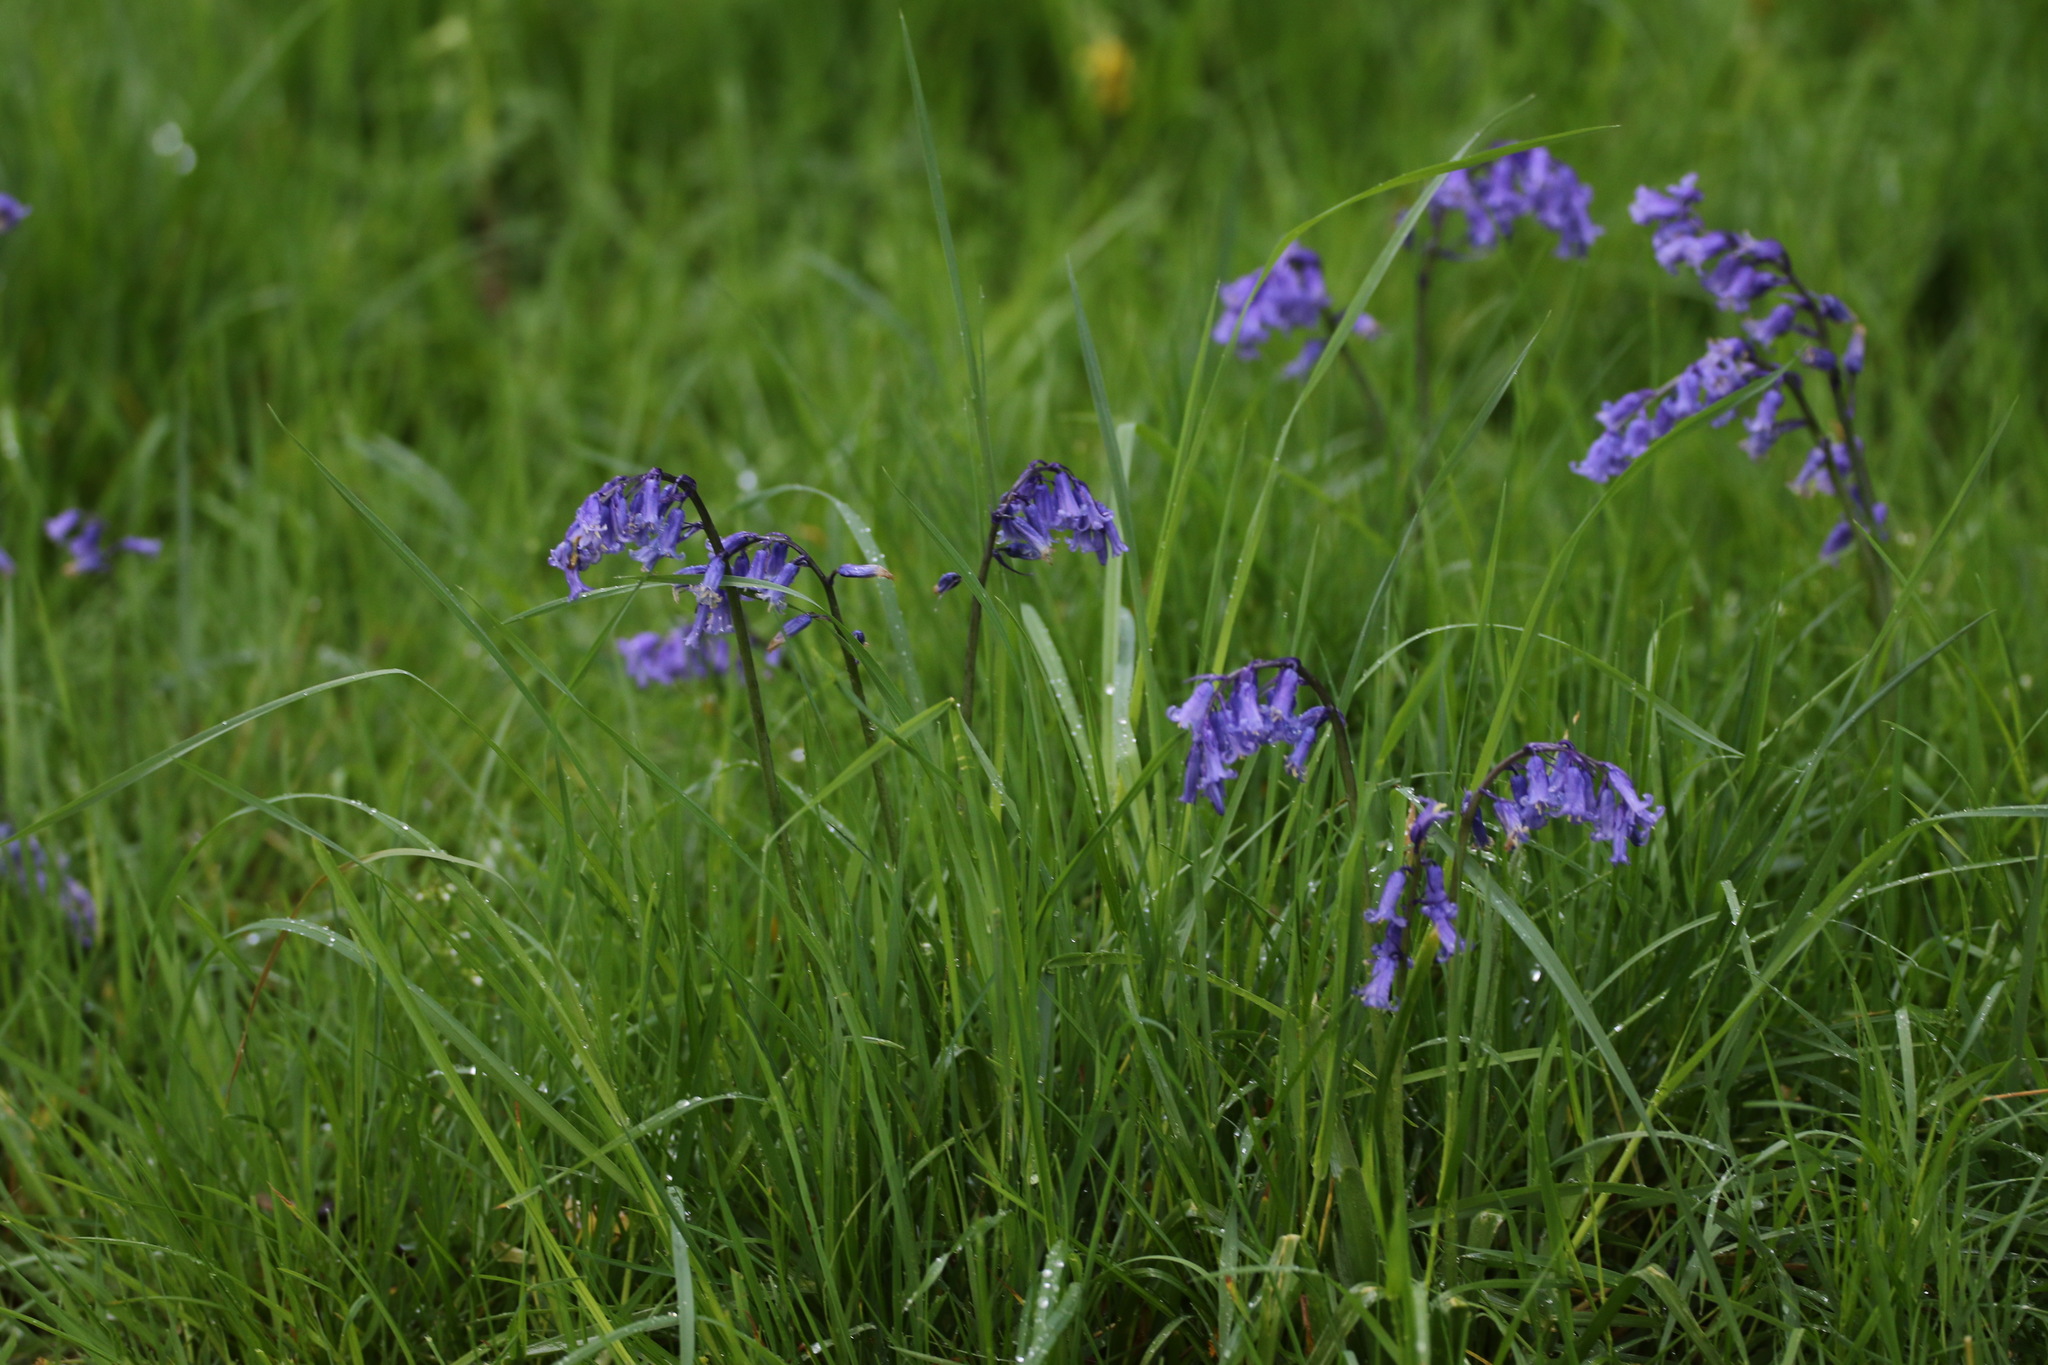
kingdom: Plantae
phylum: Tracheophyta
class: Liliopsida
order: Asparagales
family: Asparagaceae
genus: Hyacinthoides
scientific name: Hyacinthoides non-scripta
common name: Bluebell
